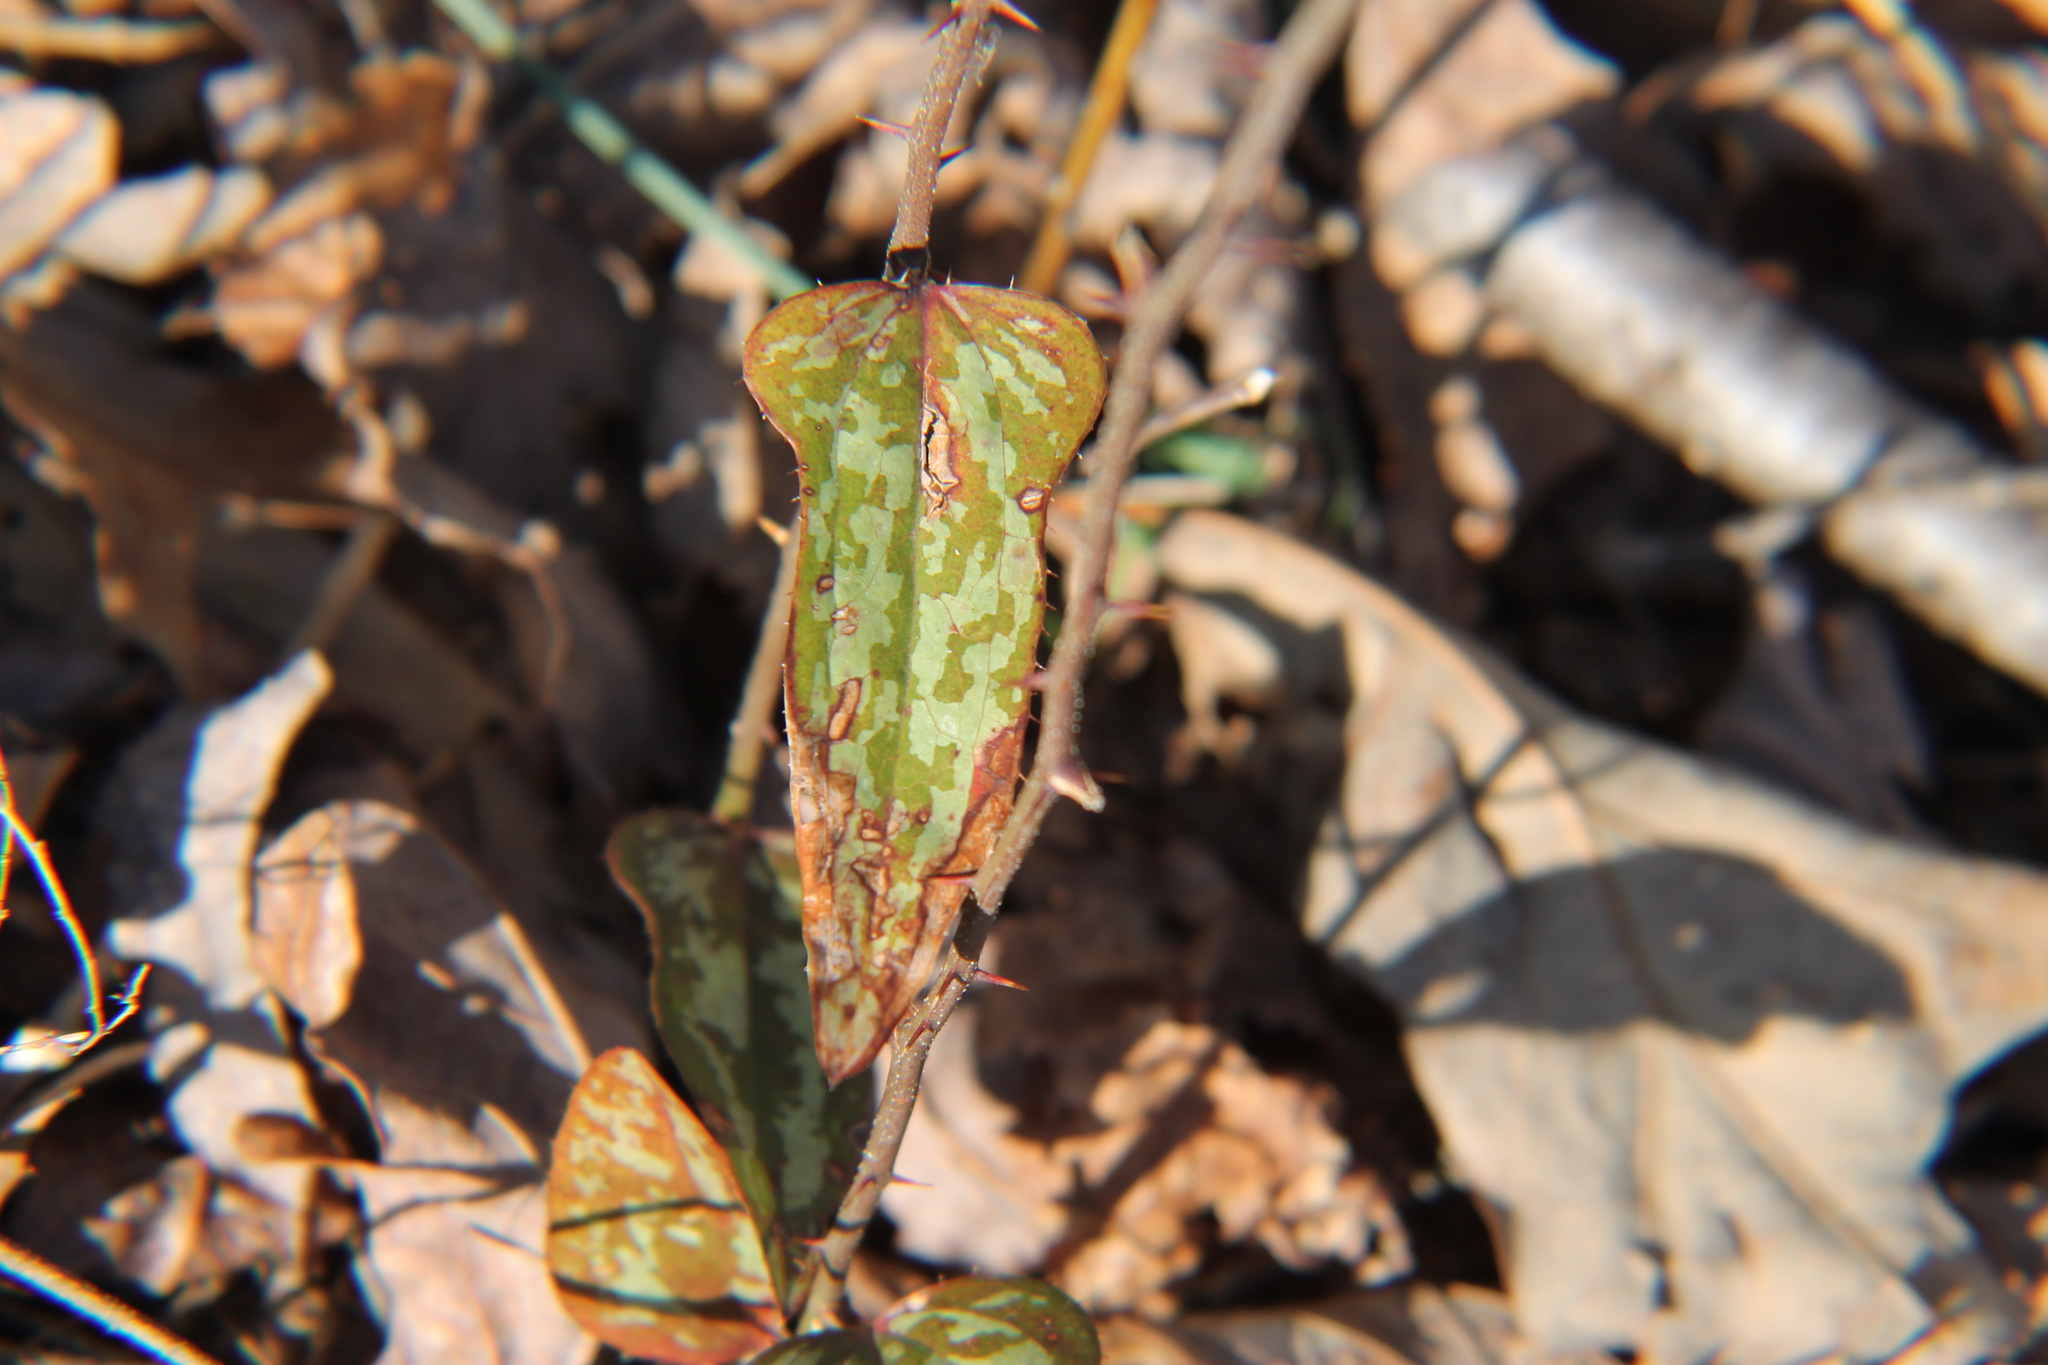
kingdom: Plantae
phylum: Tracheophyta
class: Liliopsida
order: Liliales
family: Smilacaceae
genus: Smilax
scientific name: Smilax bona-nox
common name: Catbrier
